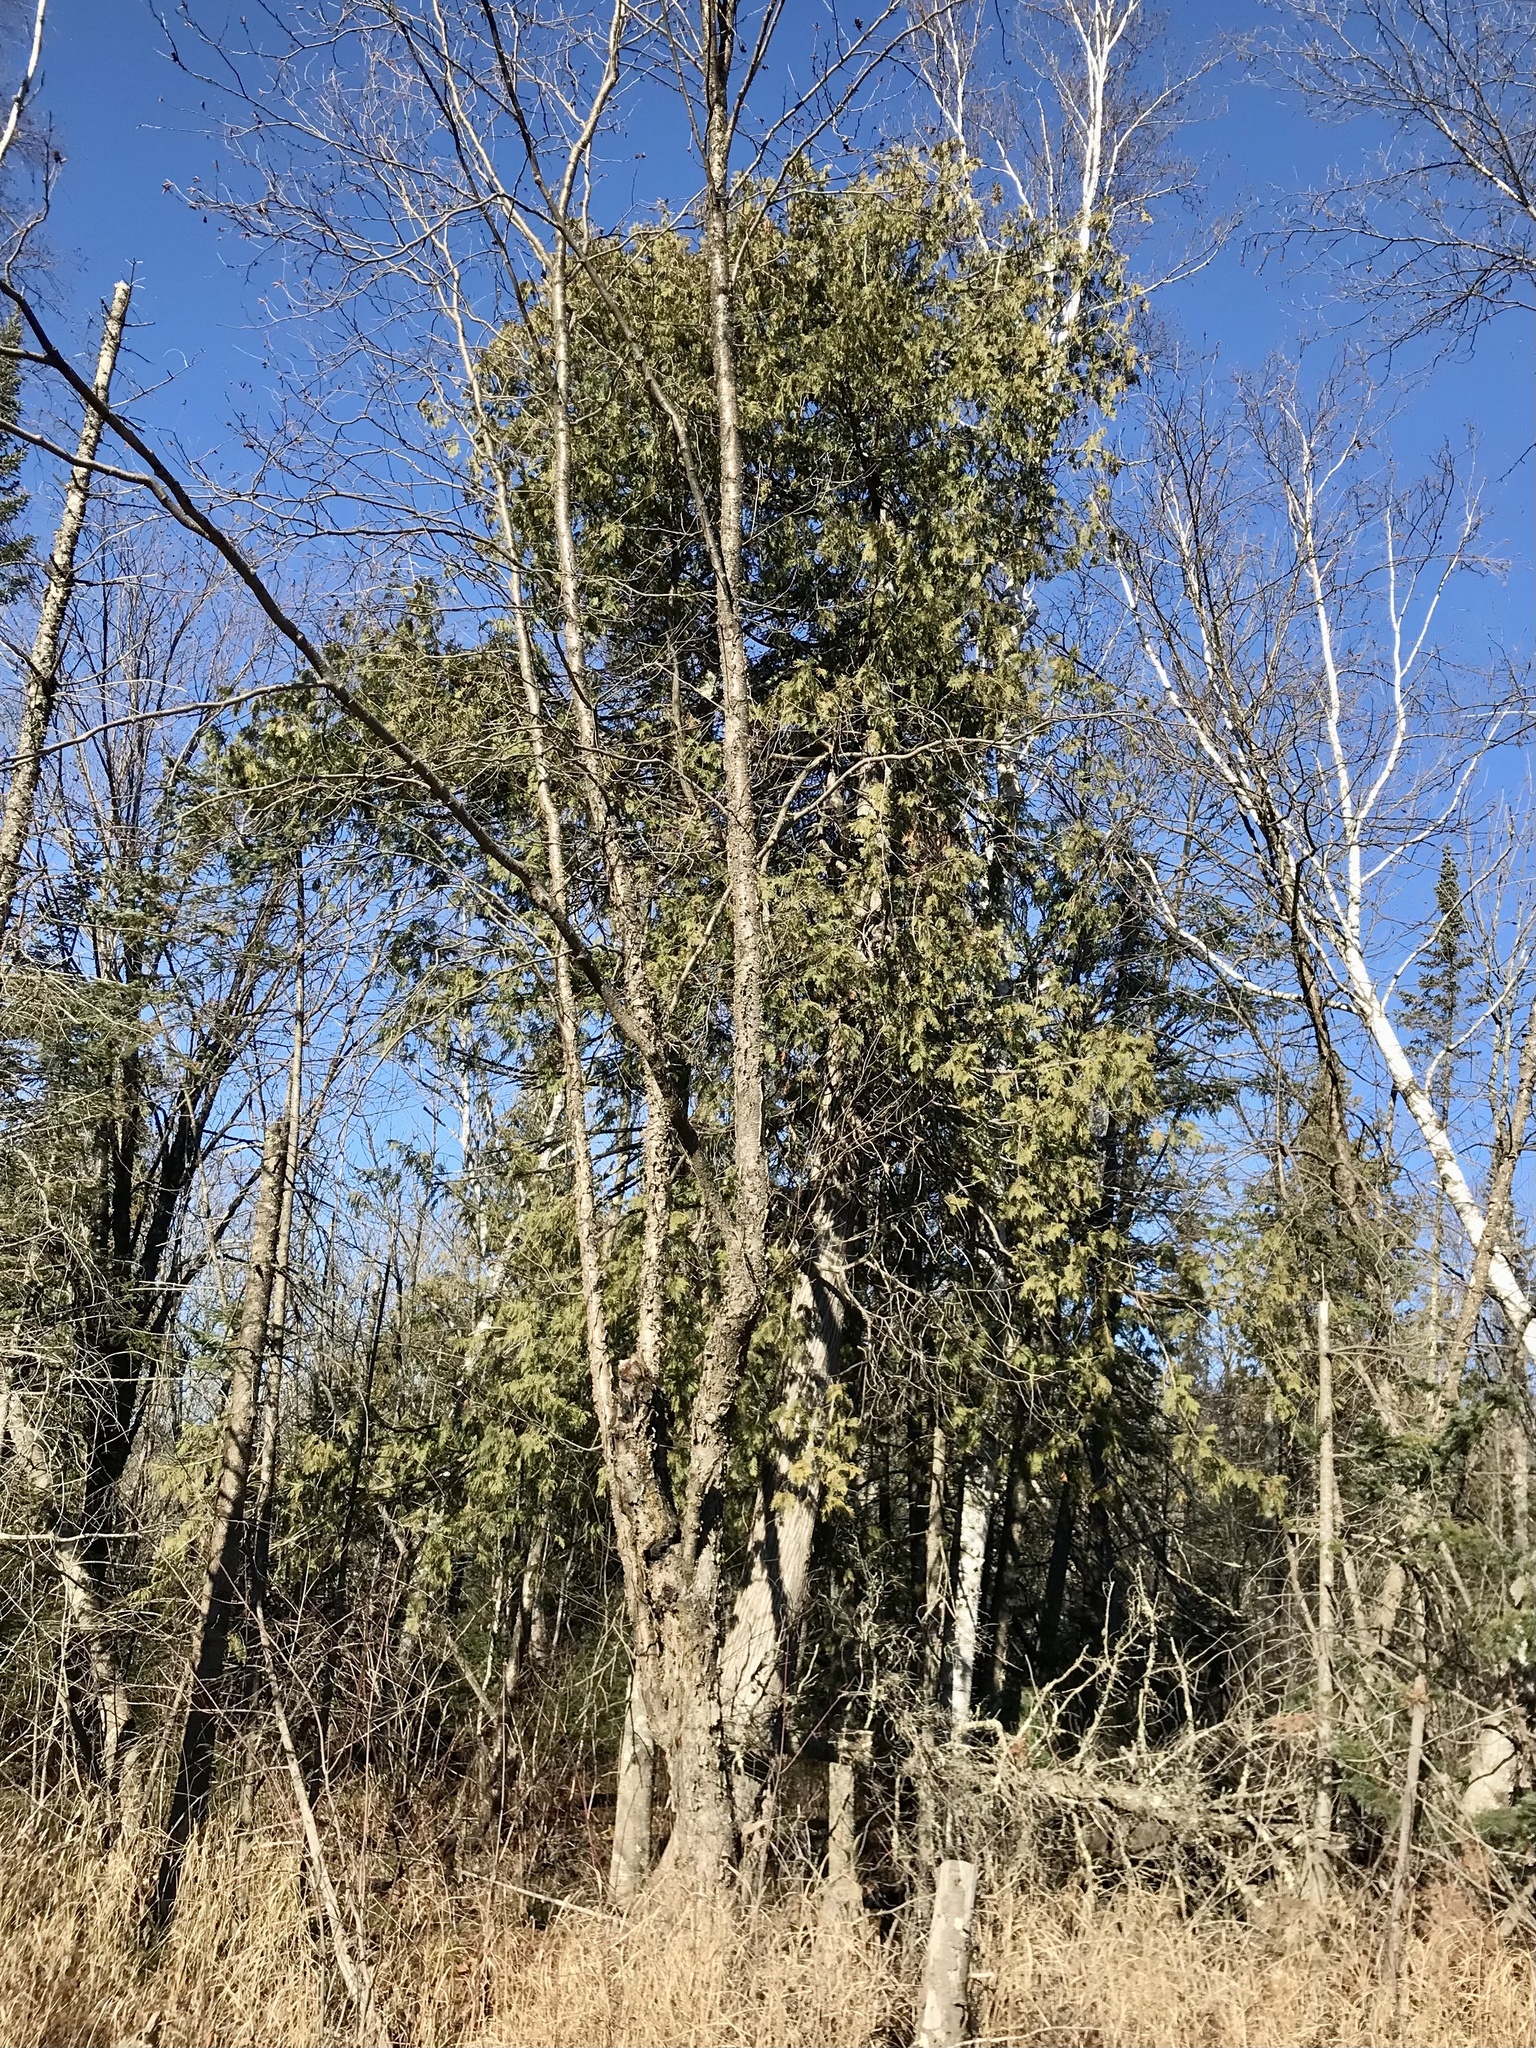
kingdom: Plantae
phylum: Tracheophyta
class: Pinopsida
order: Pinales
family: Cupressaceae
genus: Thuja
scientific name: Thuja occidentalis
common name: Northern white-cedar
